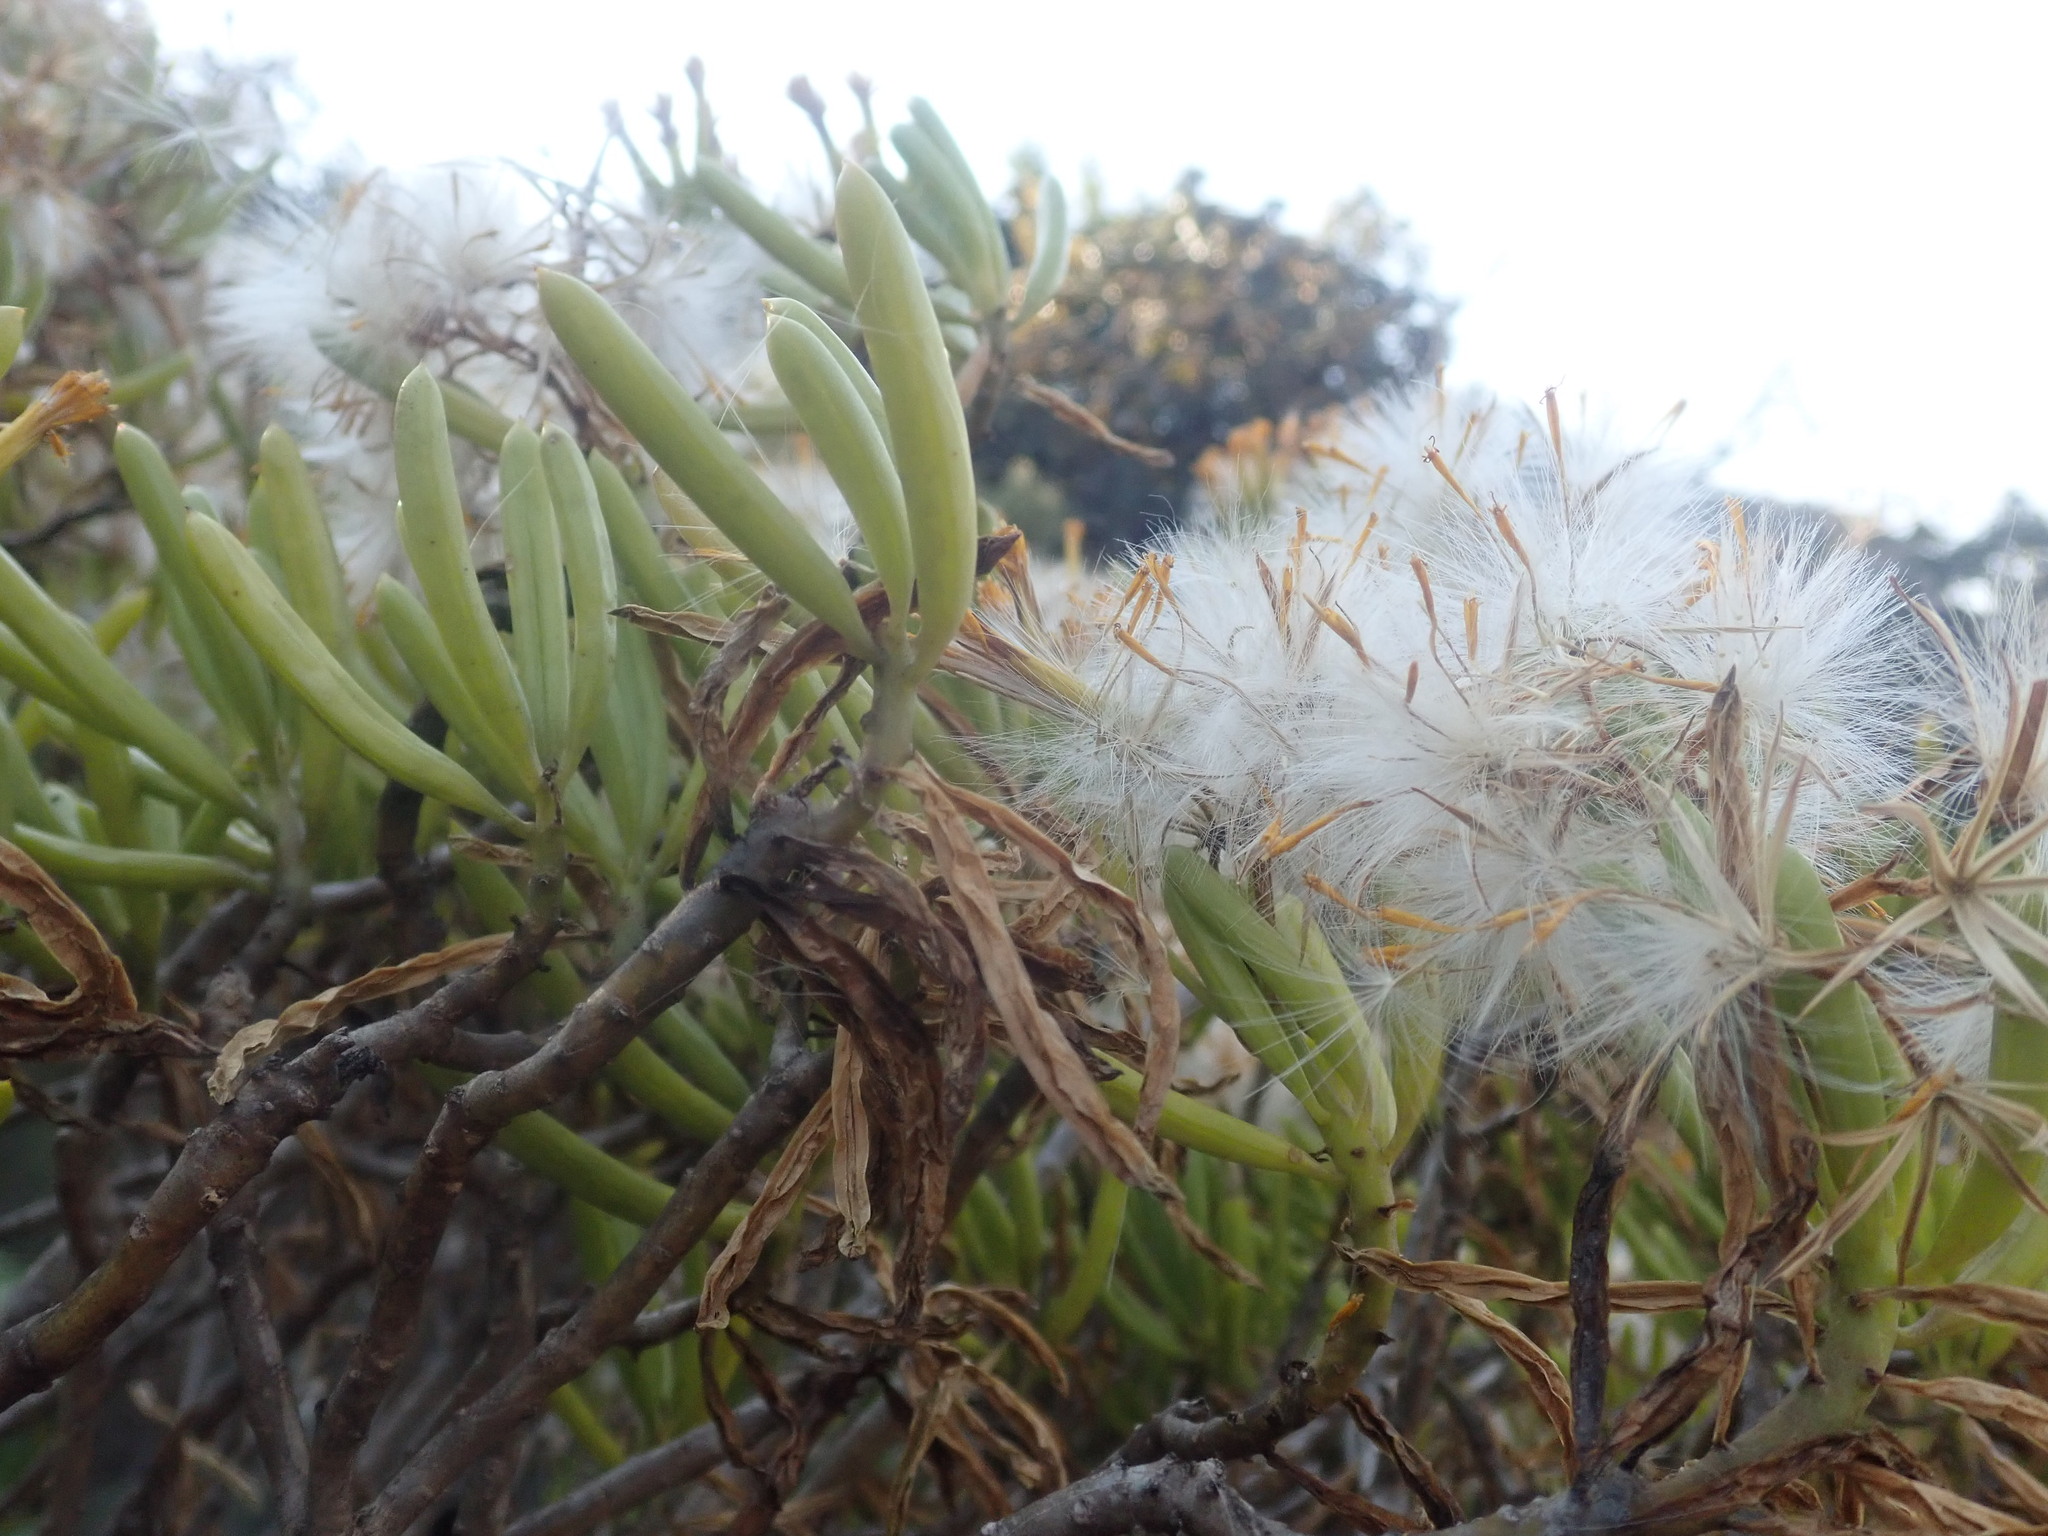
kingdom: Plantae
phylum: Tracheophyta
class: Magnoliopsida
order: Asterales
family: Asteraceae
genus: Kleinia
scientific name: Kleinia barbertonica
